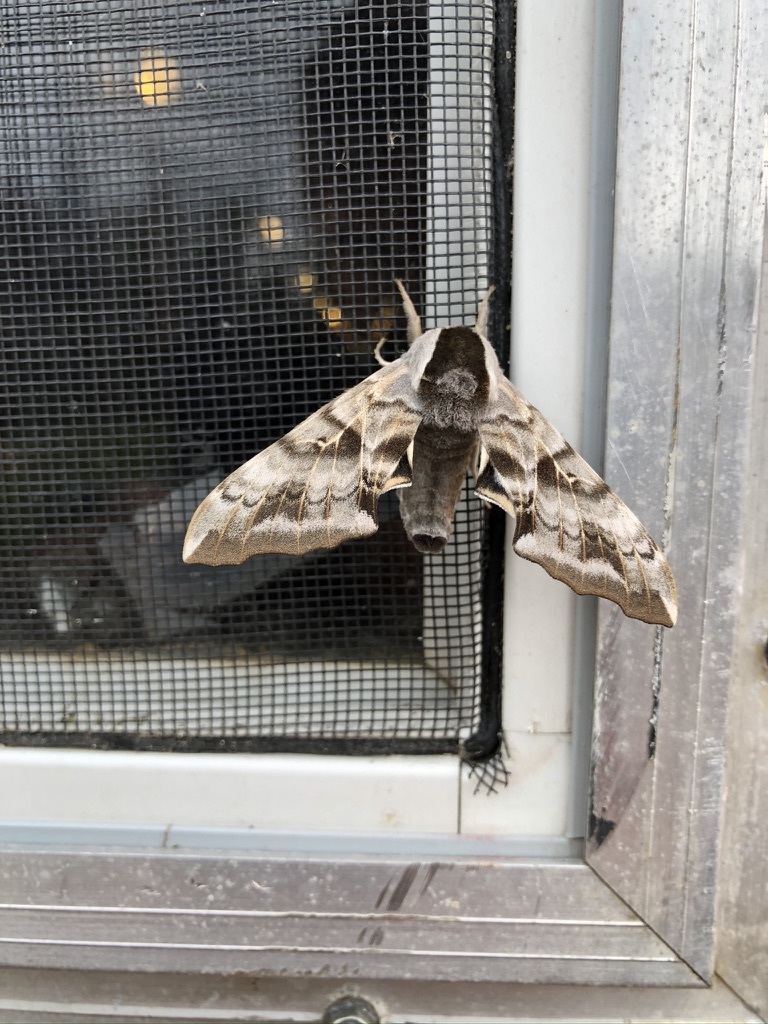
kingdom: Animalia
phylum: Arthropoda
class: Insecta
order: Lepidoptera
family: Sphingidae
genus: Smerinthus
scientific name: Smerinthus cerisyi
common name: Cerisy's sphinx moth
